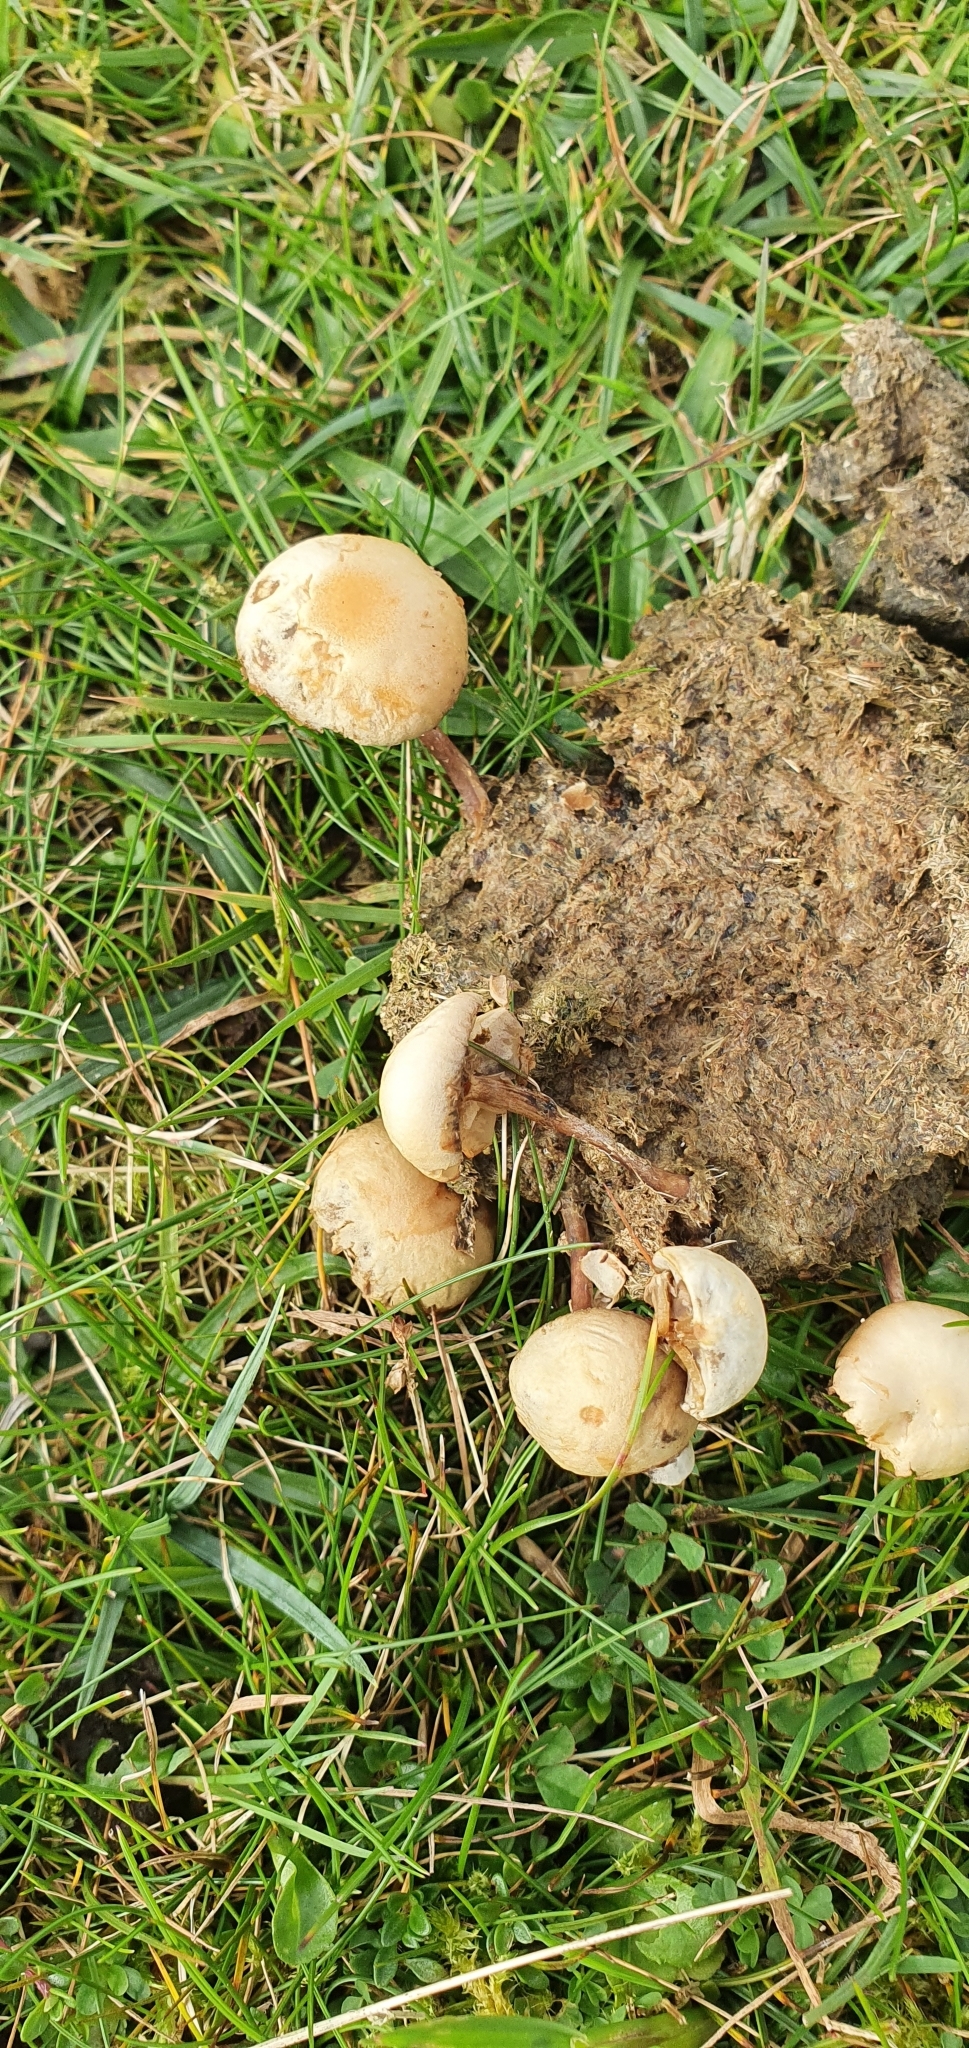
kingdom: Fungi
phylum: Basidiomycota
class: Agaricomycetes
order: Agaricales
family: Strophariaceae
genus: Deconica
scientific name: Deconica coprophila
